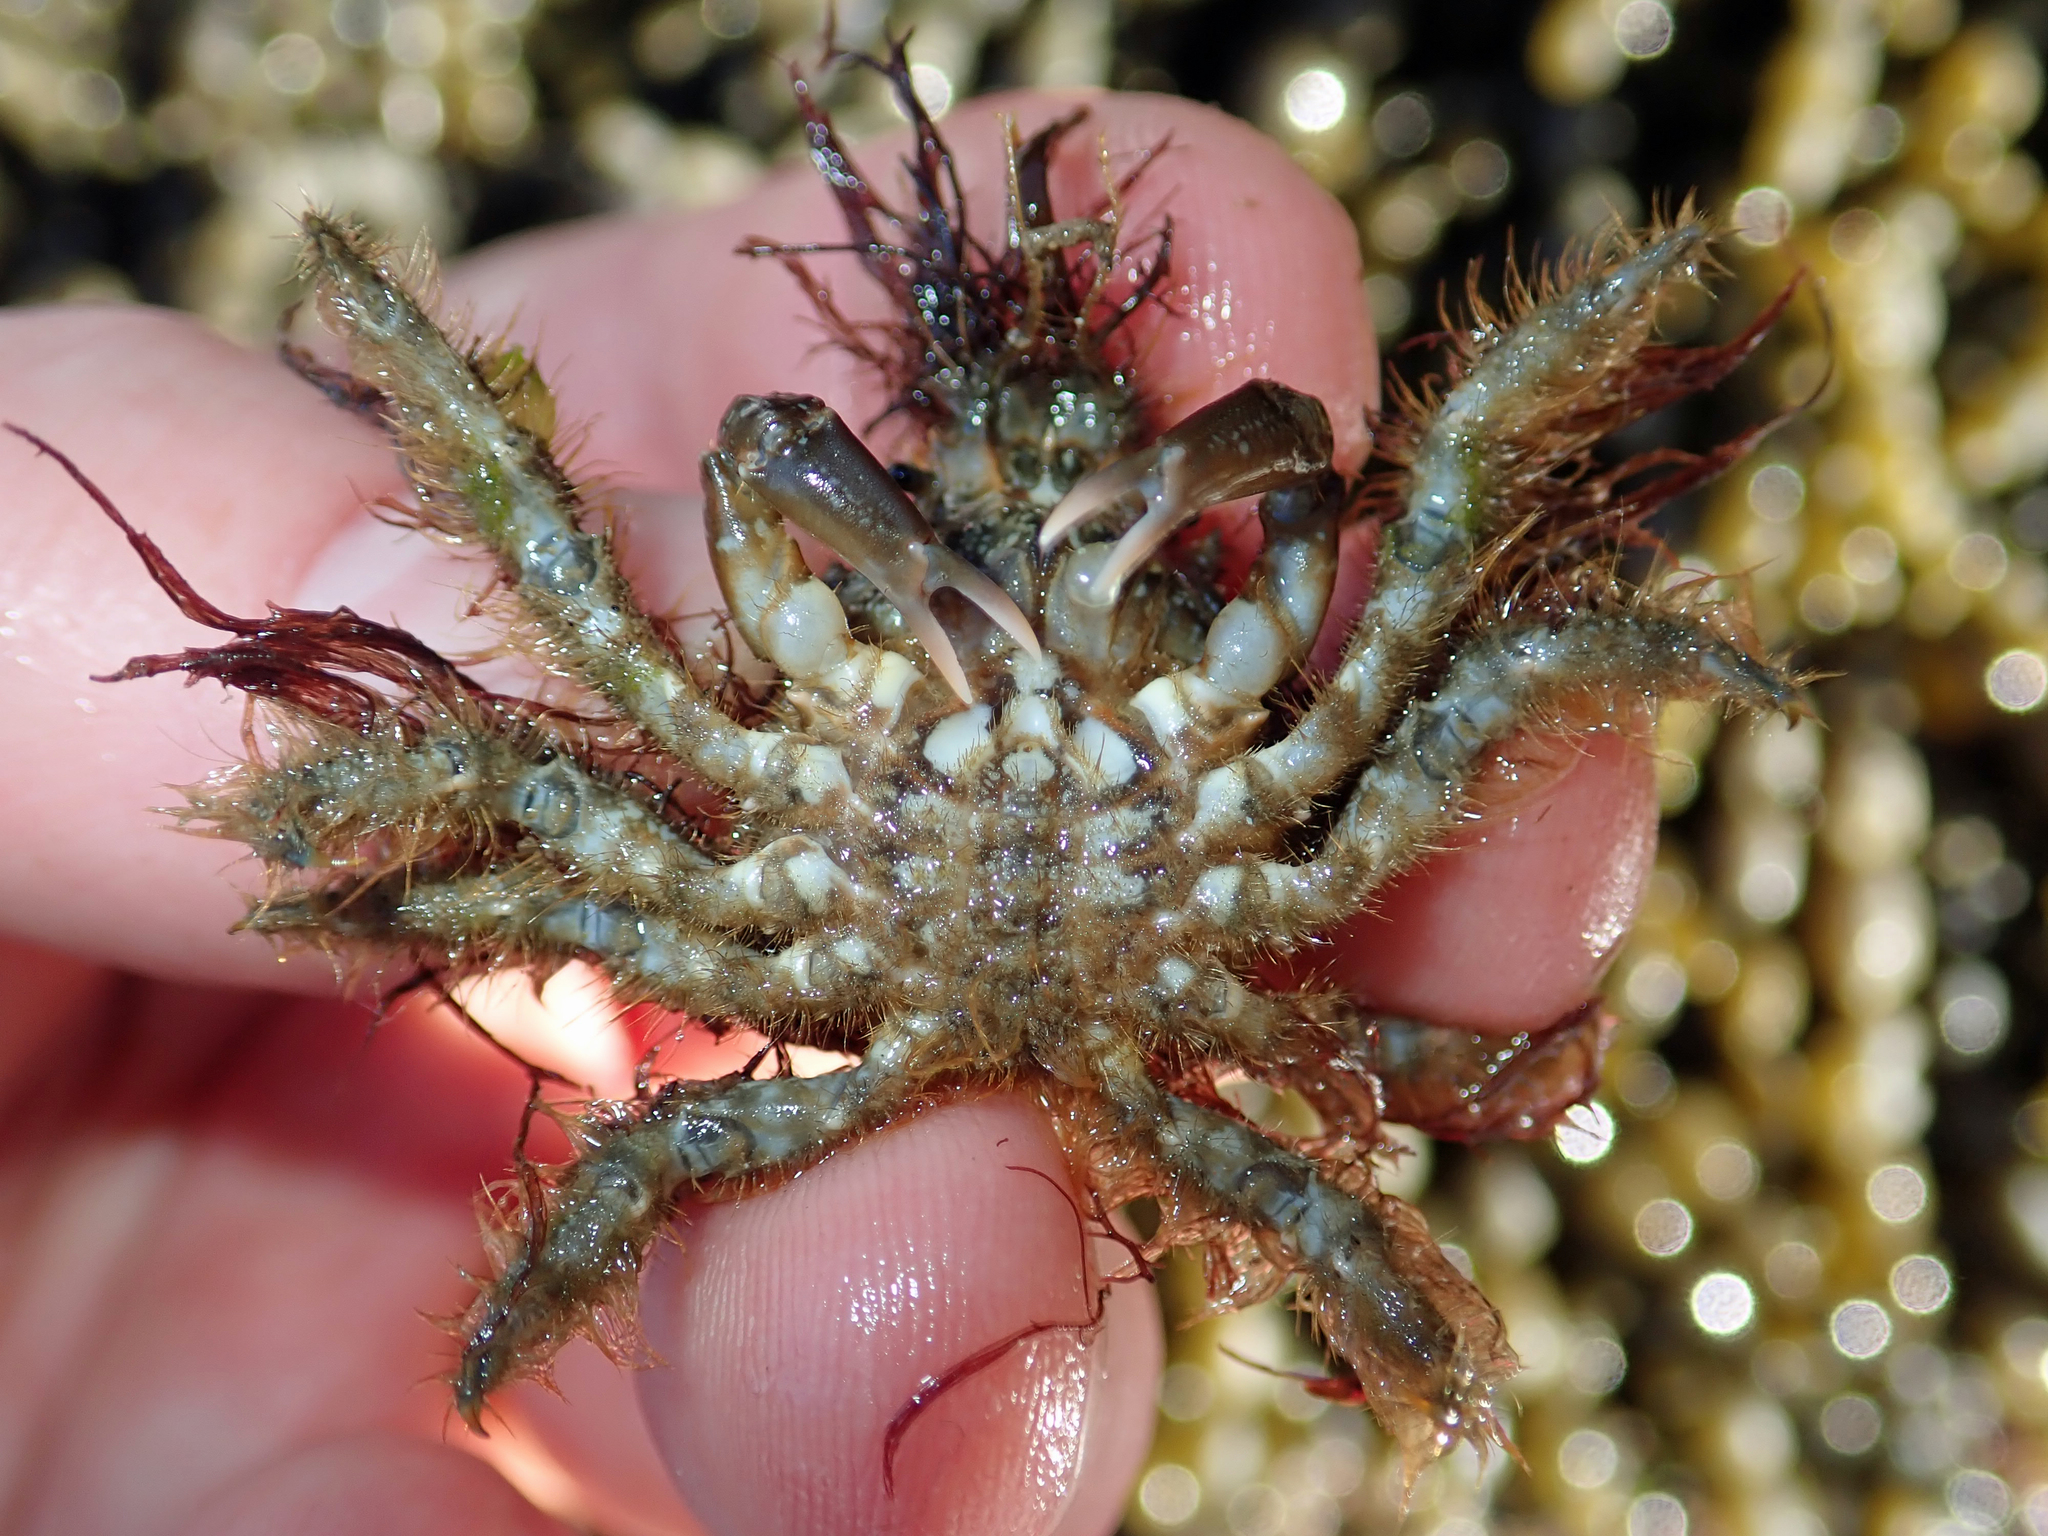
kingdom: Animalia
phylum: Arthropoda
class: Malacostraca
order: Decapoda
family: Majidae
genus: Notomithrax
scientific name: Notomithrax ursus
